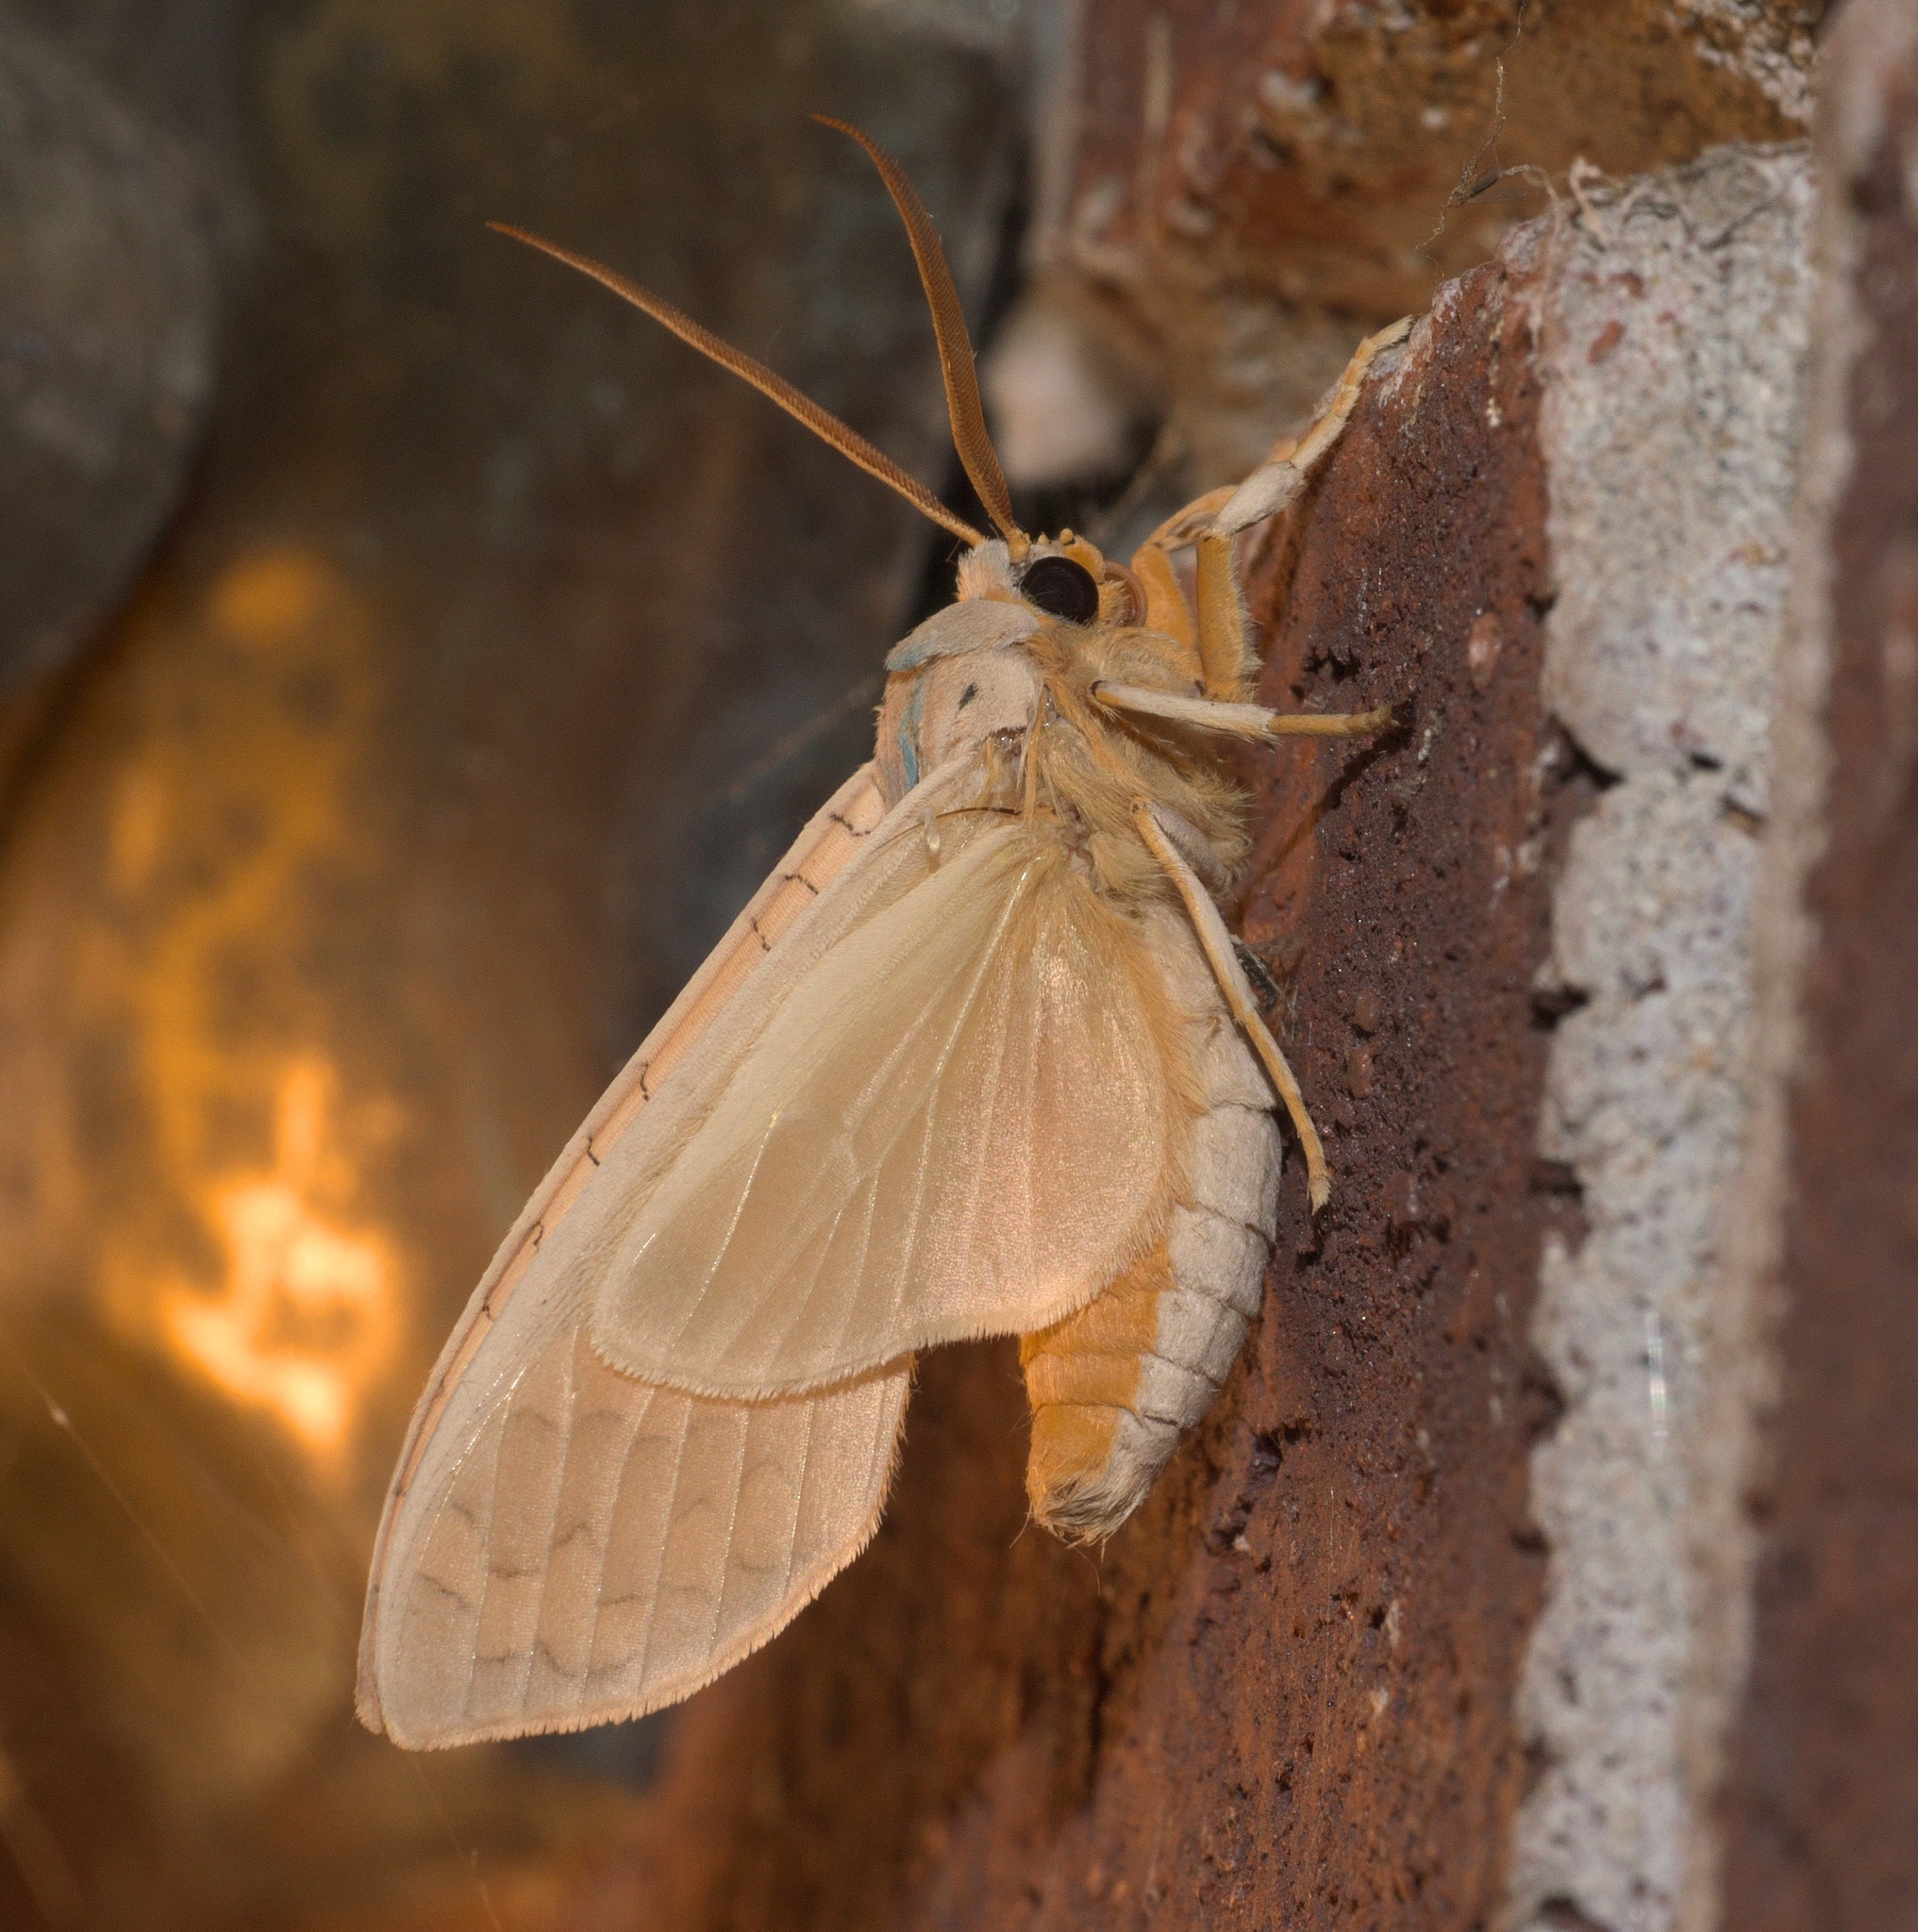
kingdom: Animalia
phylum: Arthropoda
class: Insecta
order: Lepidoptera
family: Erebidae
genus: Halysidota
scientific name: Halysidota
